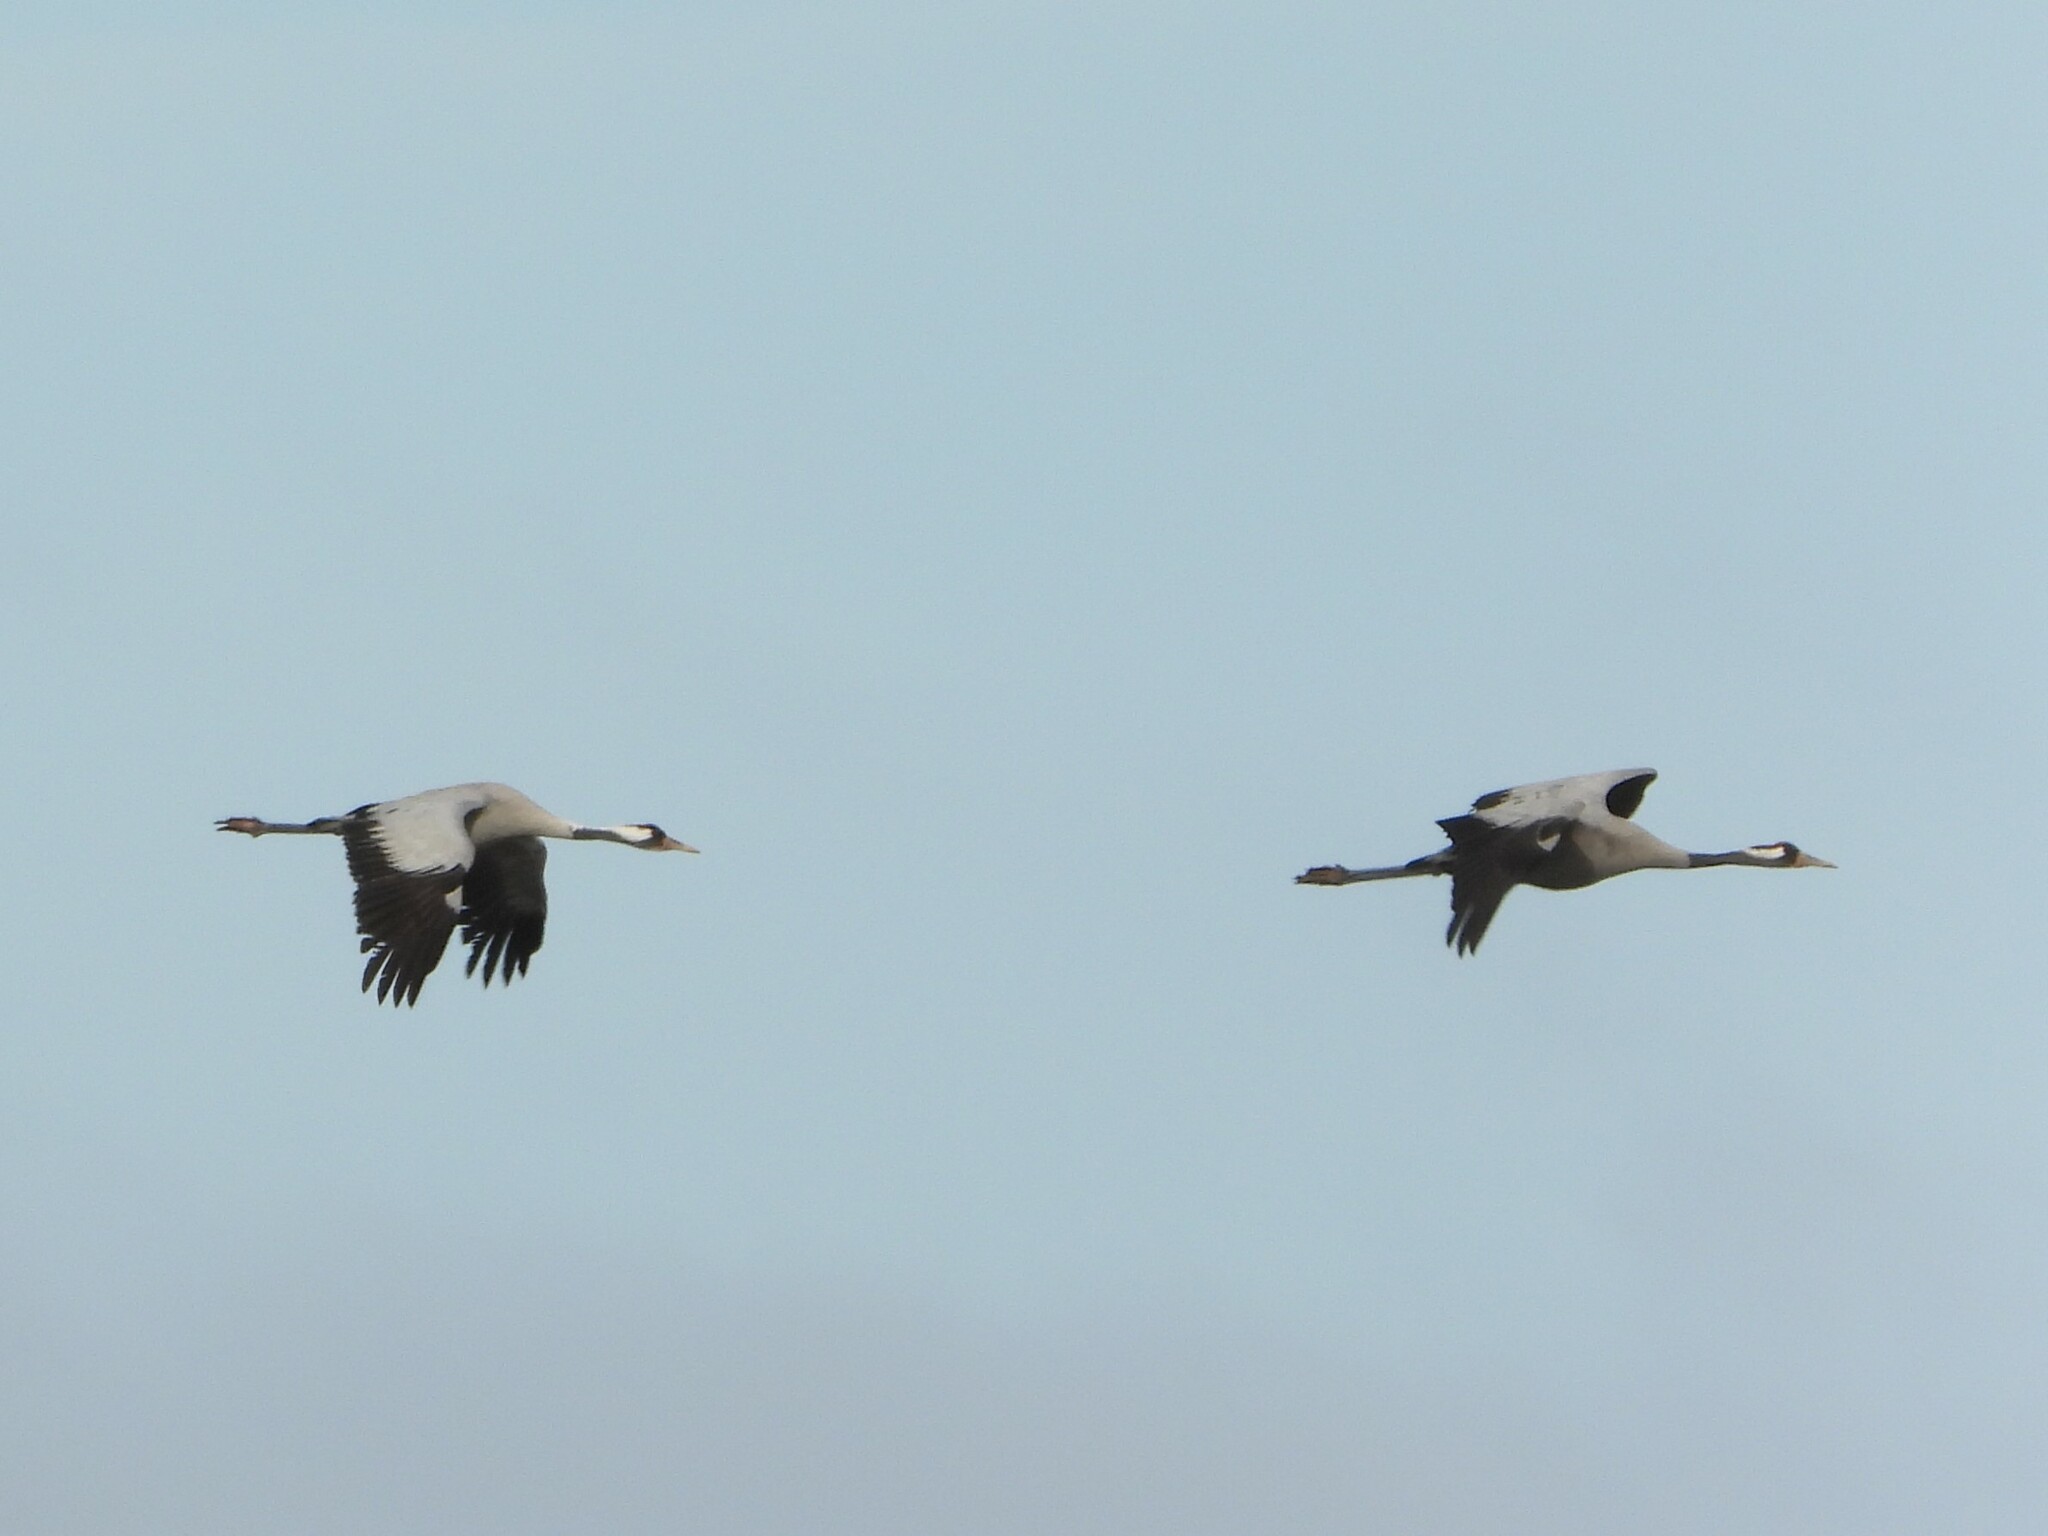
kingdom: Animalia
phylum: Chordata
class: Aves
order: Gruiformes
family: Gruidae
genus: Grus
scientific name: Grus grus
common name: Common crane
